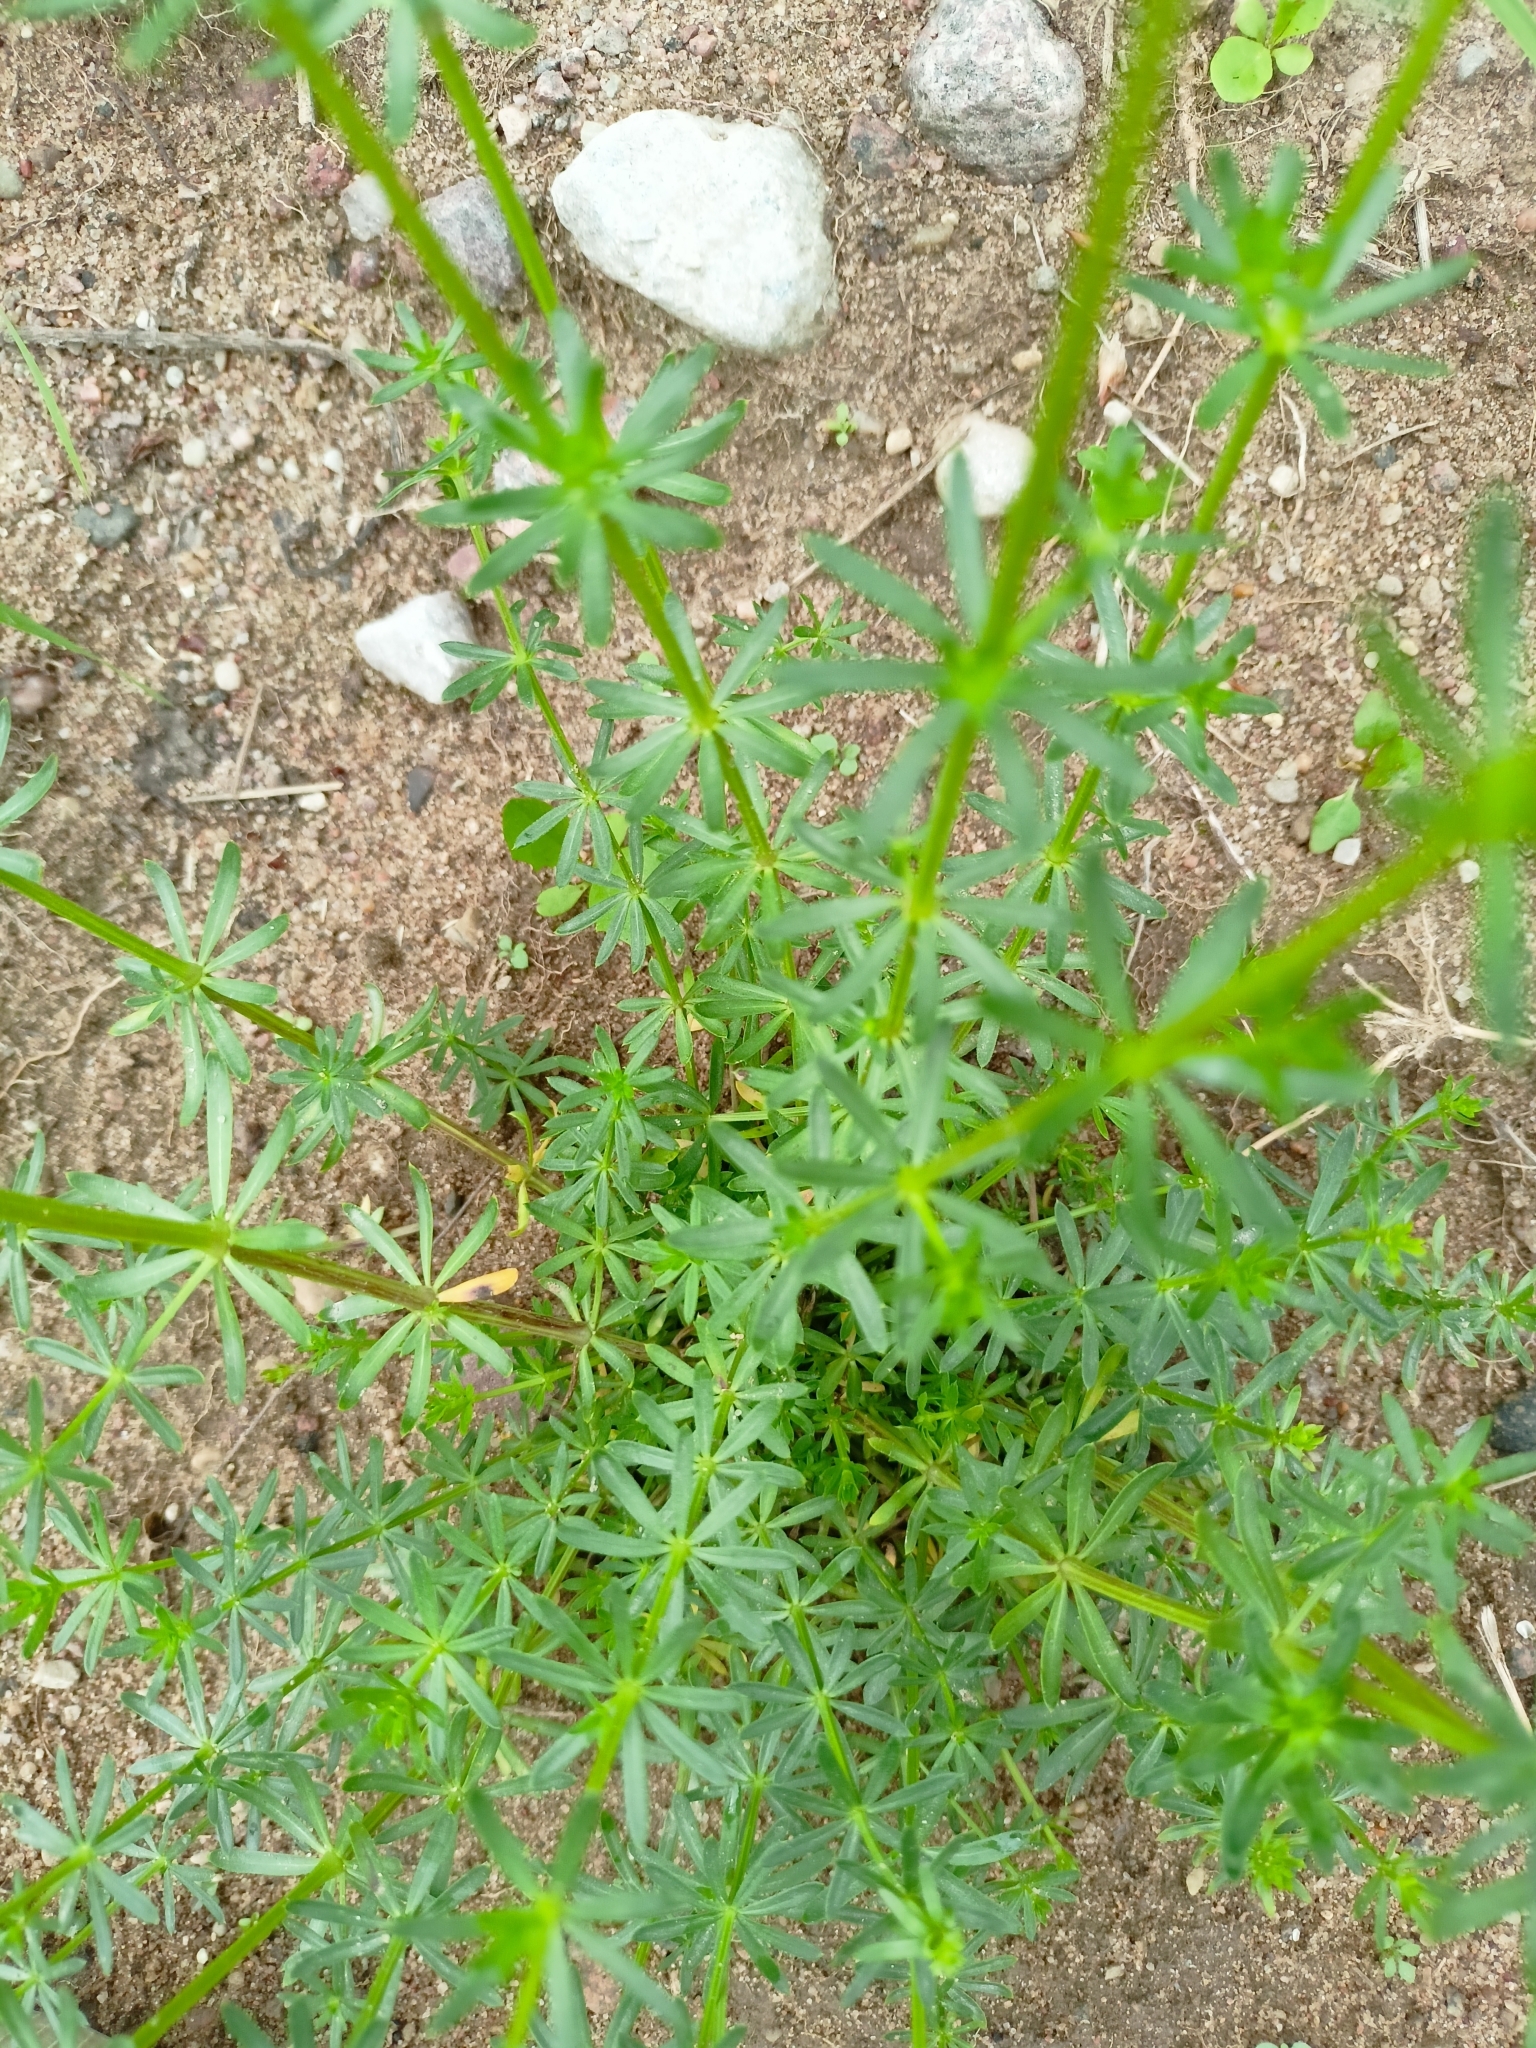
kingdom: Plantae
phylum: Tracheophyta
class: Magnoliopsida
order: Gentianales
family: Rubiaceae
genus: Galium
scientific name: Galium mollugo
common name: Hedge bedstraw
